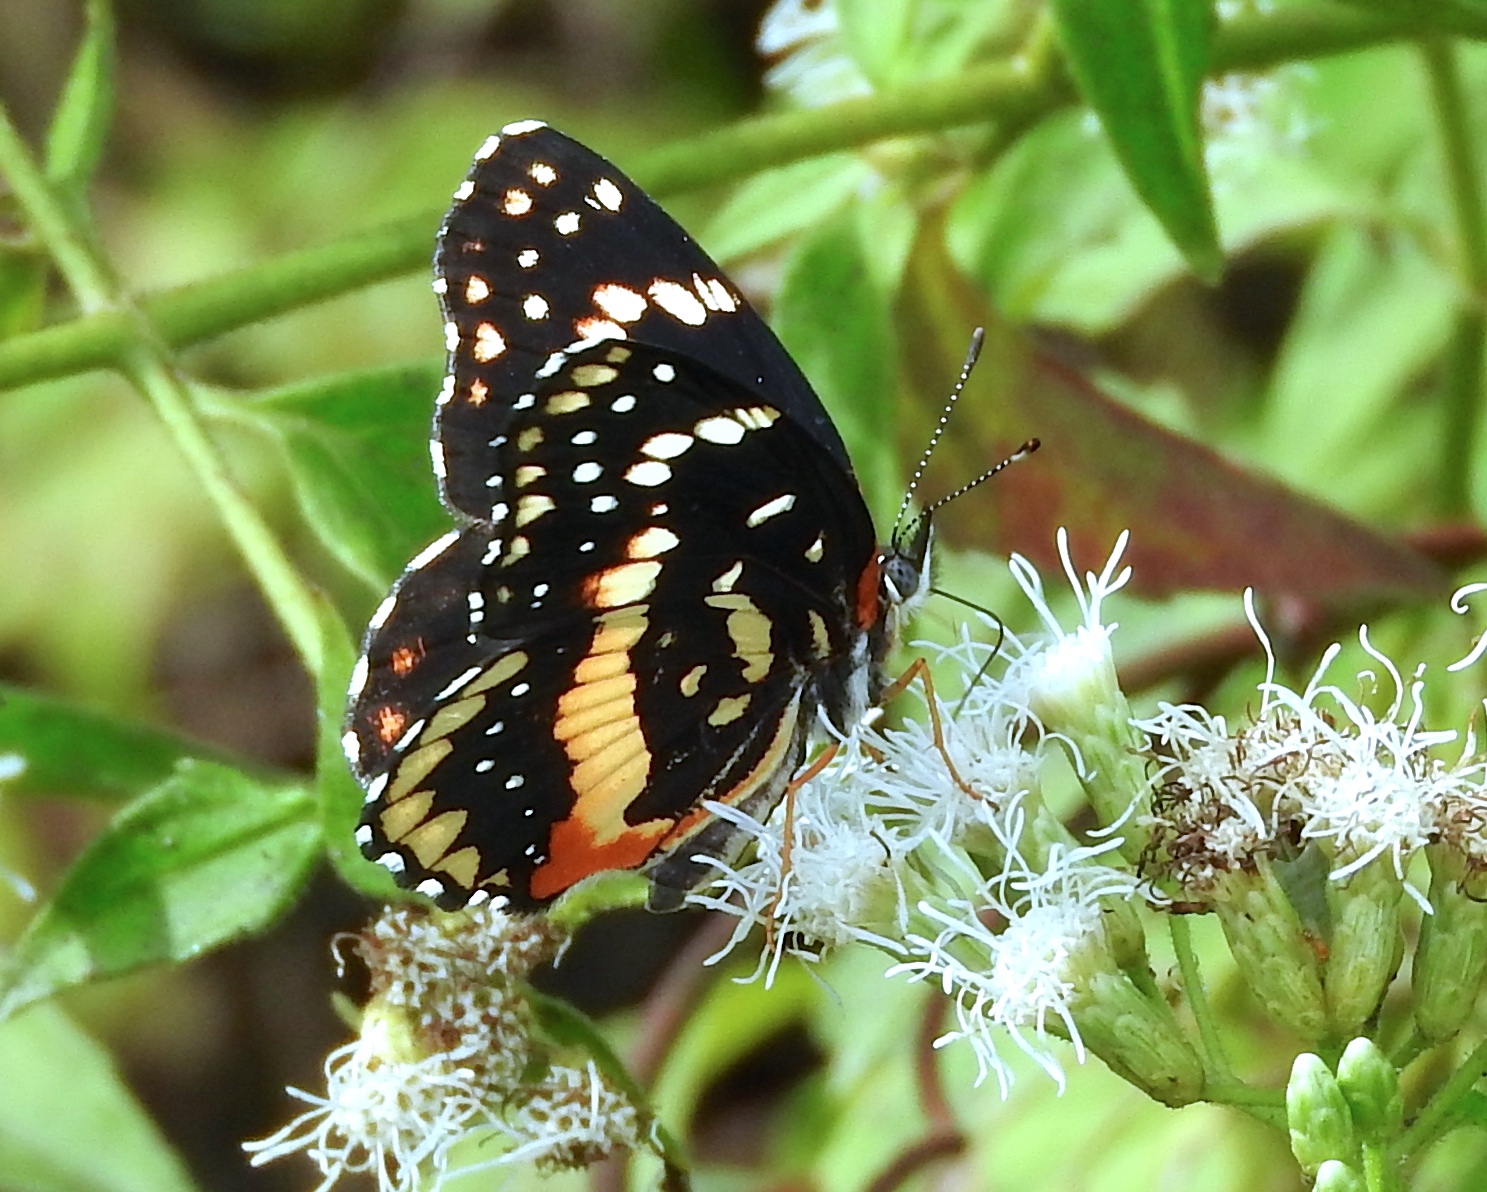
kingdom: Animalia
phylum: Arthropoda
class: Insecta
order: Lepidoptera
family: Nymphalidae
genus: Chlosyne
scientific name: Chlosyne lacinia
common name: Bordered patch
